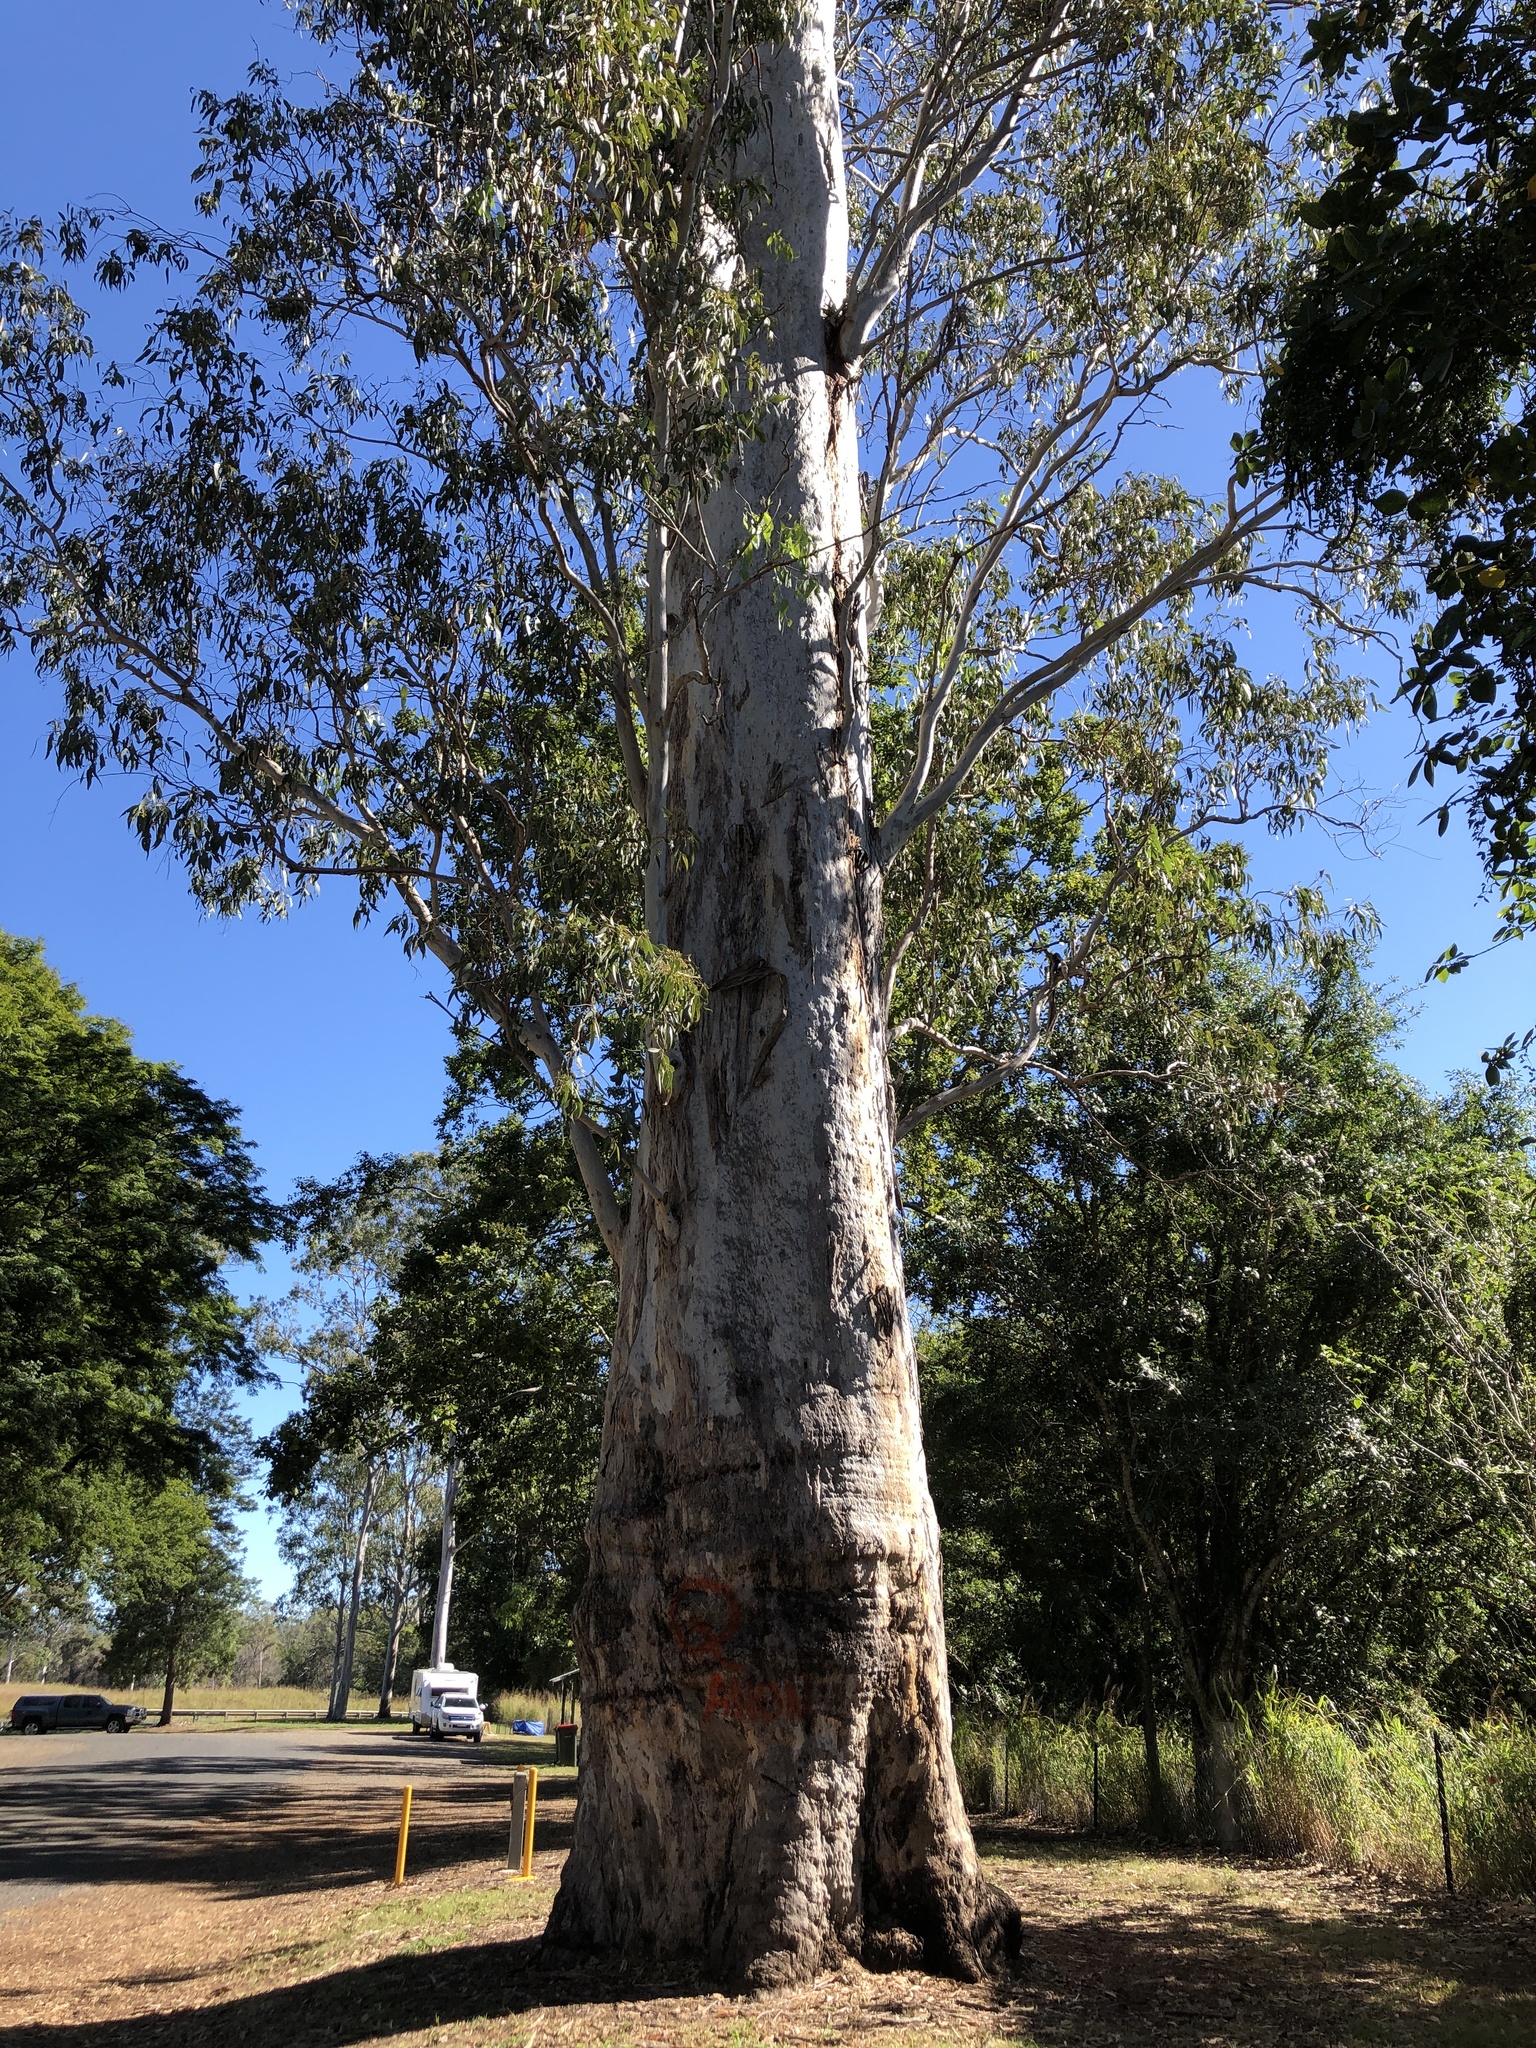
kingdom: Plantae
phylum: Tracheophyta
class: Magnoliopsida
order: Myrtales
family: Myrtaceae
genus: Eucalyptus
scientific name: Eucalyptus tereticornis
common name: Forest redgum
